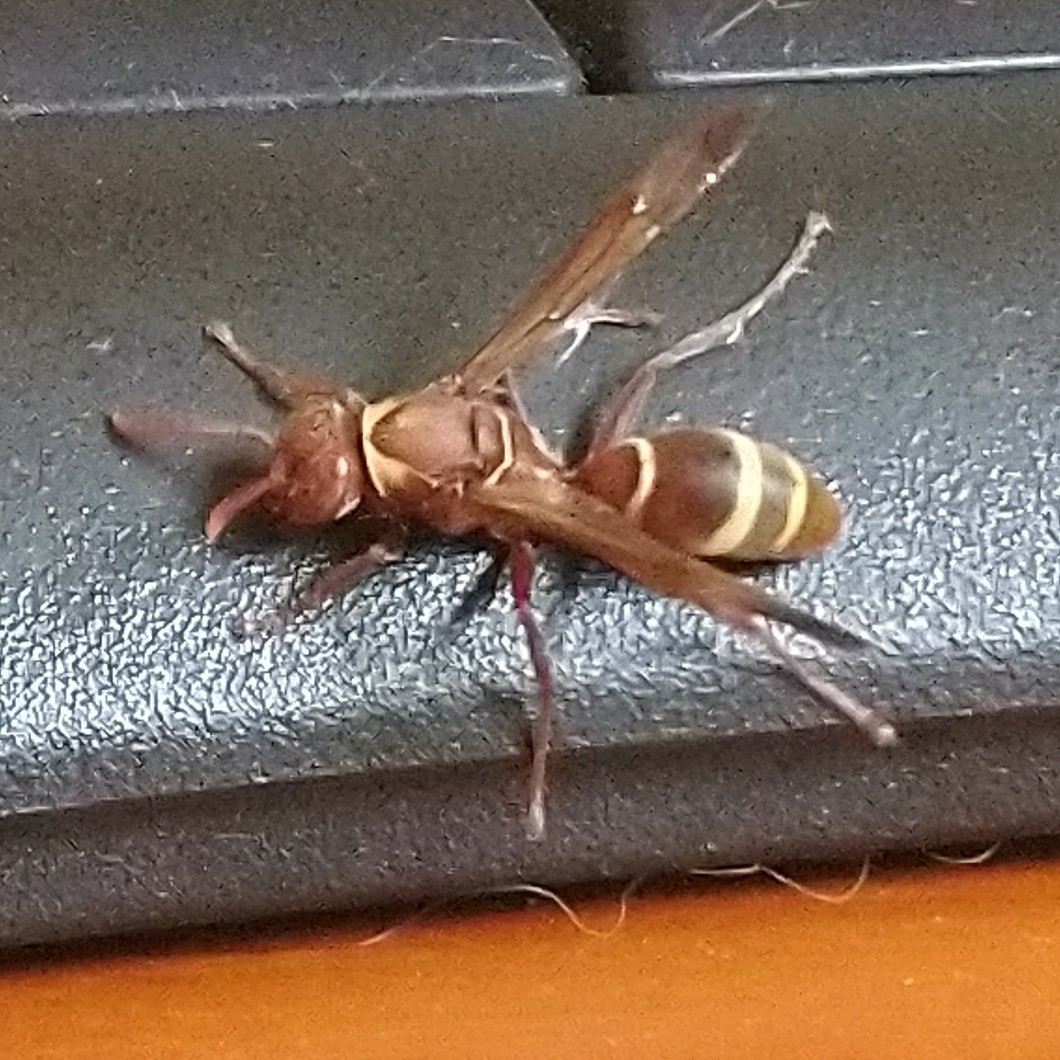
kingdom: Animalia
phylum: Arthropoda
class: Insecta
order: Hymenoptera
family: Eumenidae
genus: Polistes
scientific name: Polistes badius
